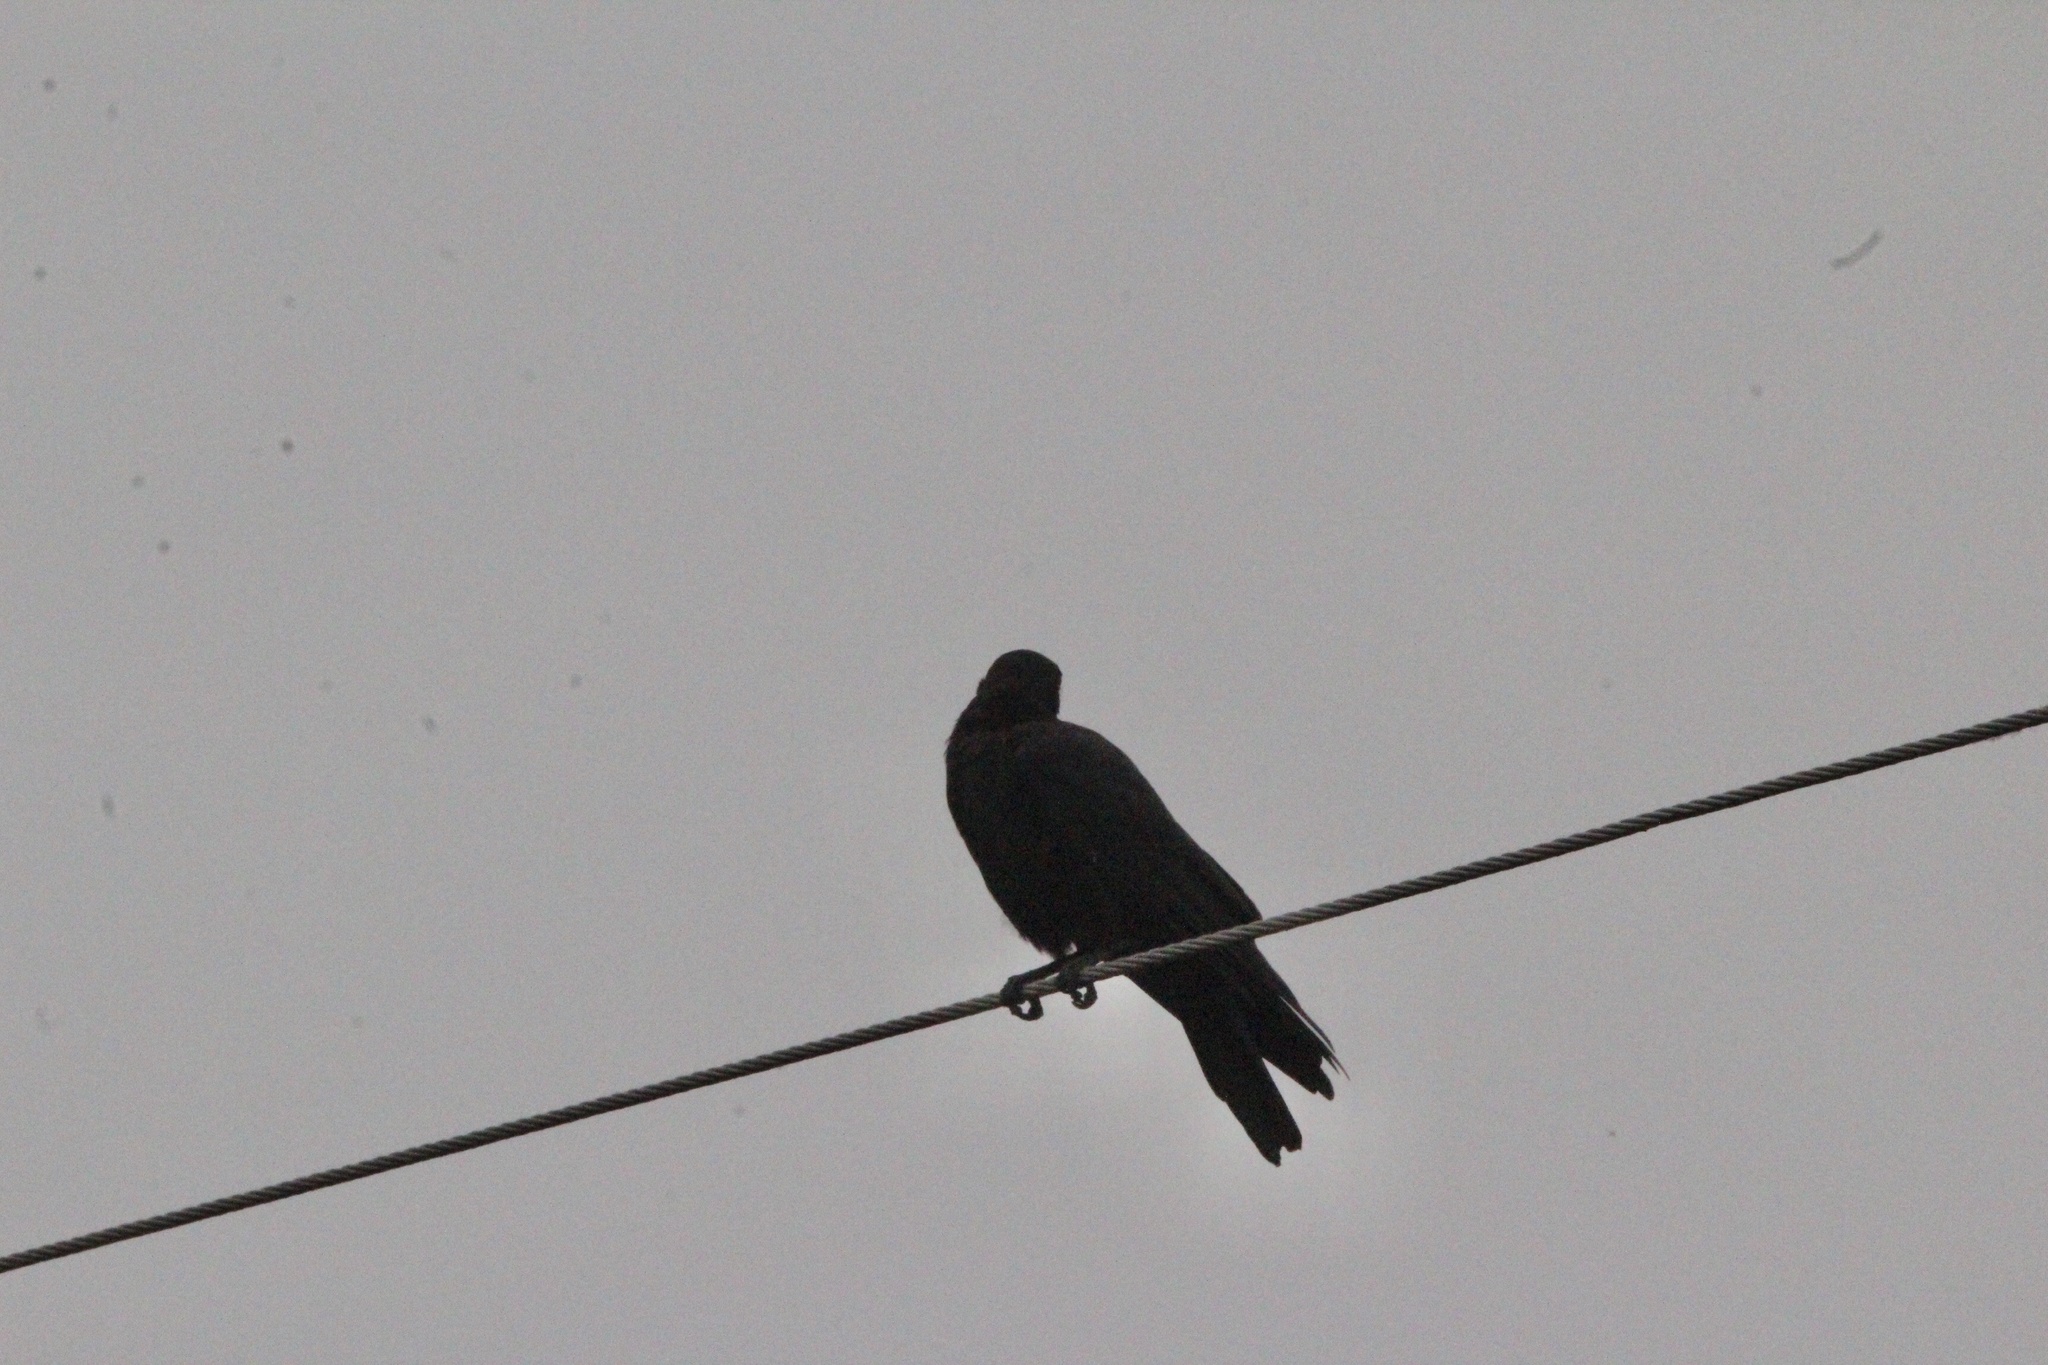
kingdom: Animalia
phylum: Chordata
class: Aves
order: Passeriformes
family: Corvidae
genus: Corvus
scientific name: Corvus brachyrhynchos
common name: American crow
